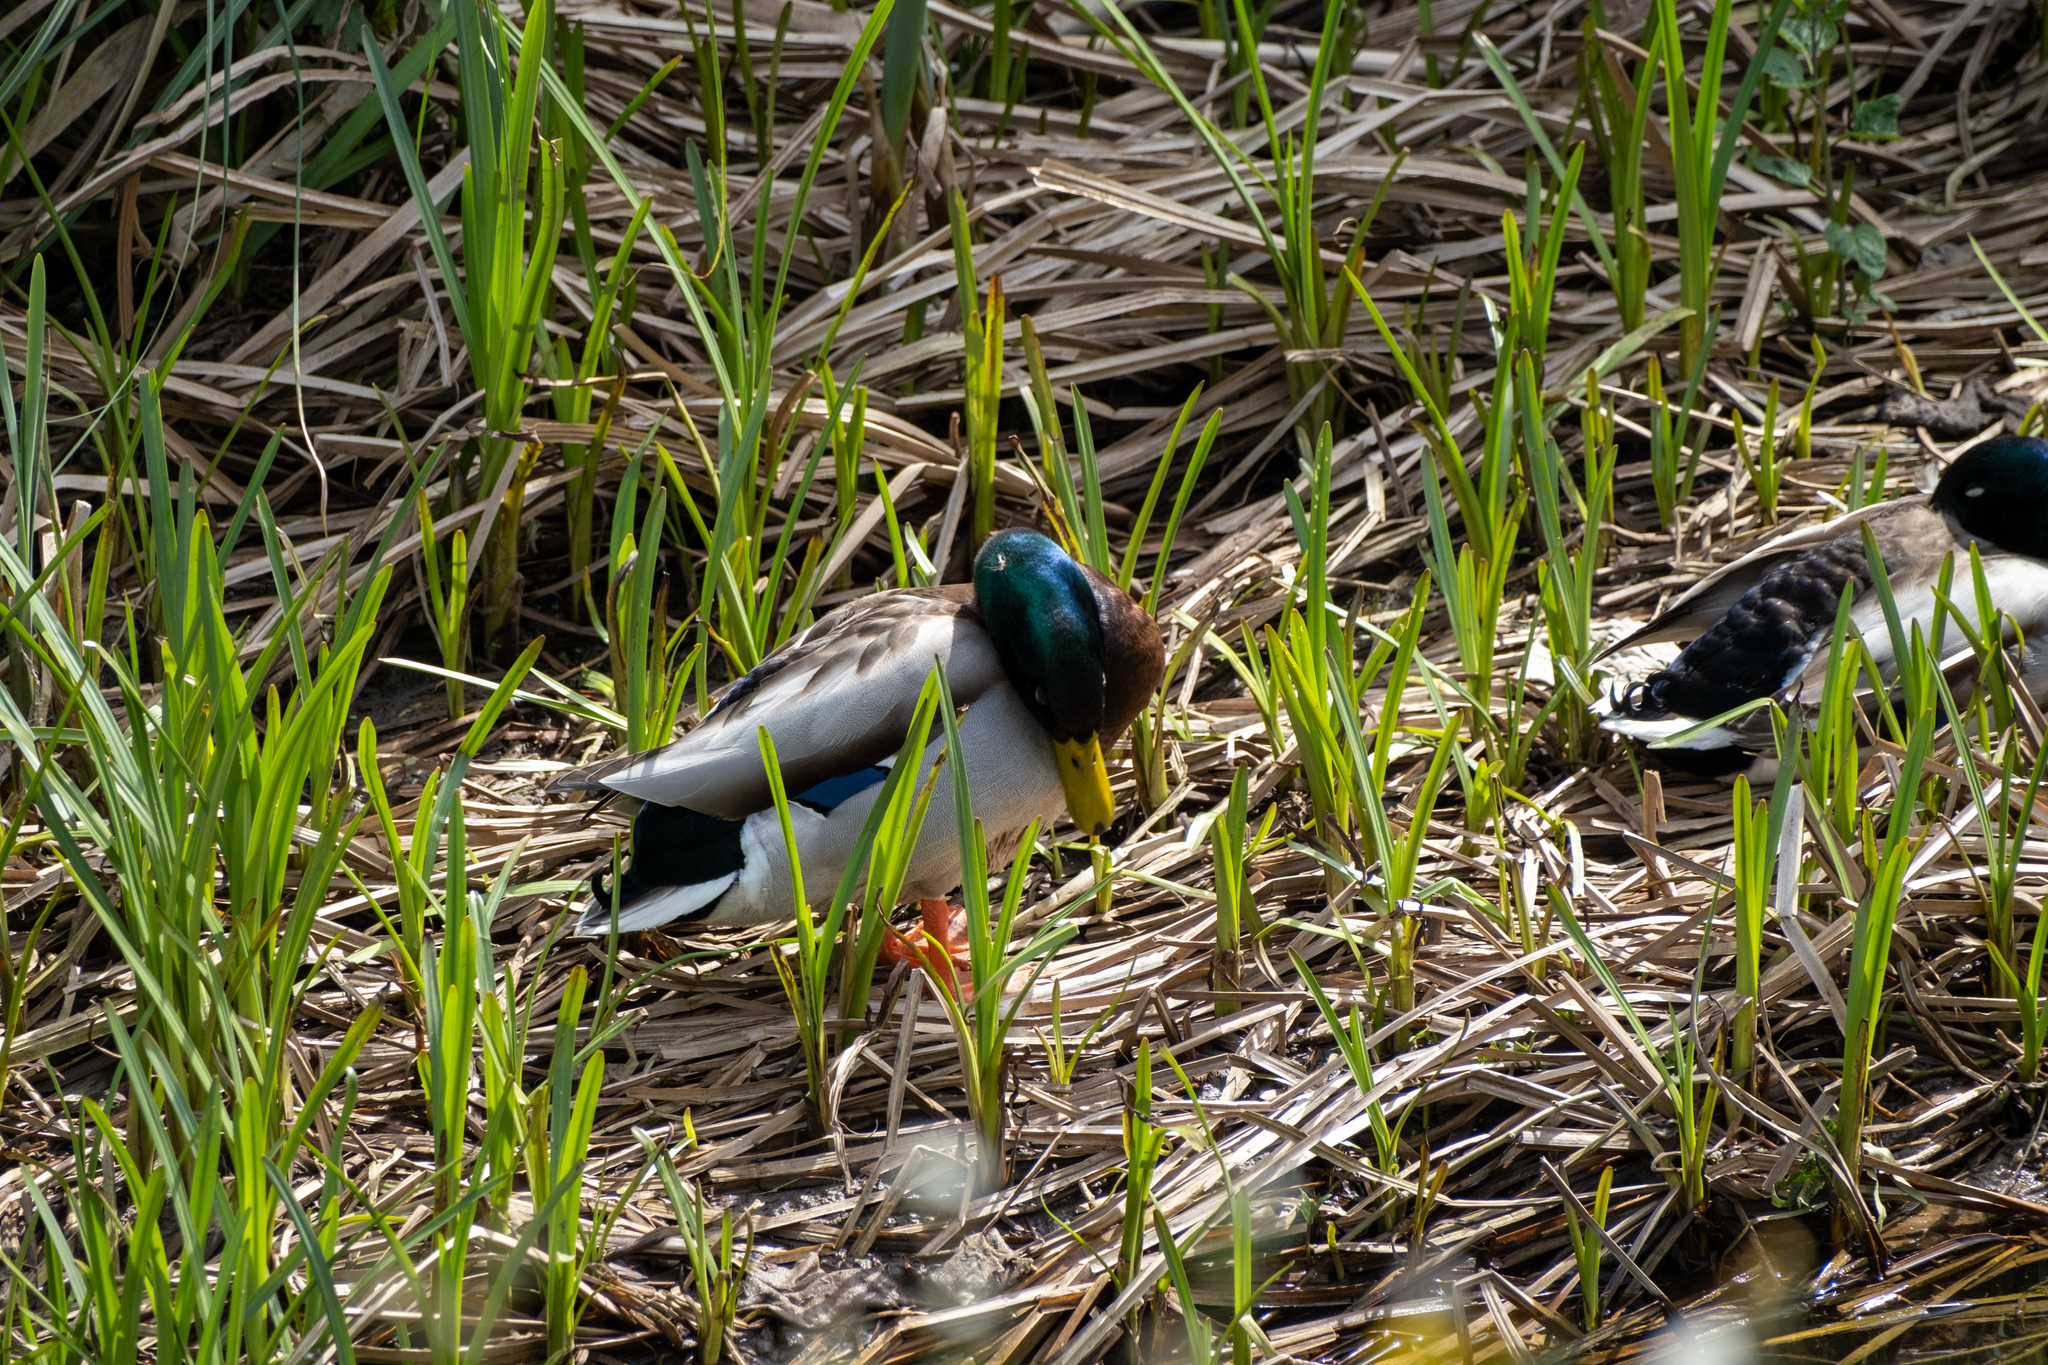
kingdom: Animalia
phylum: Chordata
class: Aves
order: Anseriformes
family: Anatidae
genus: Anas
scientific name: Anas platyrhynchos
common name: Mallard
